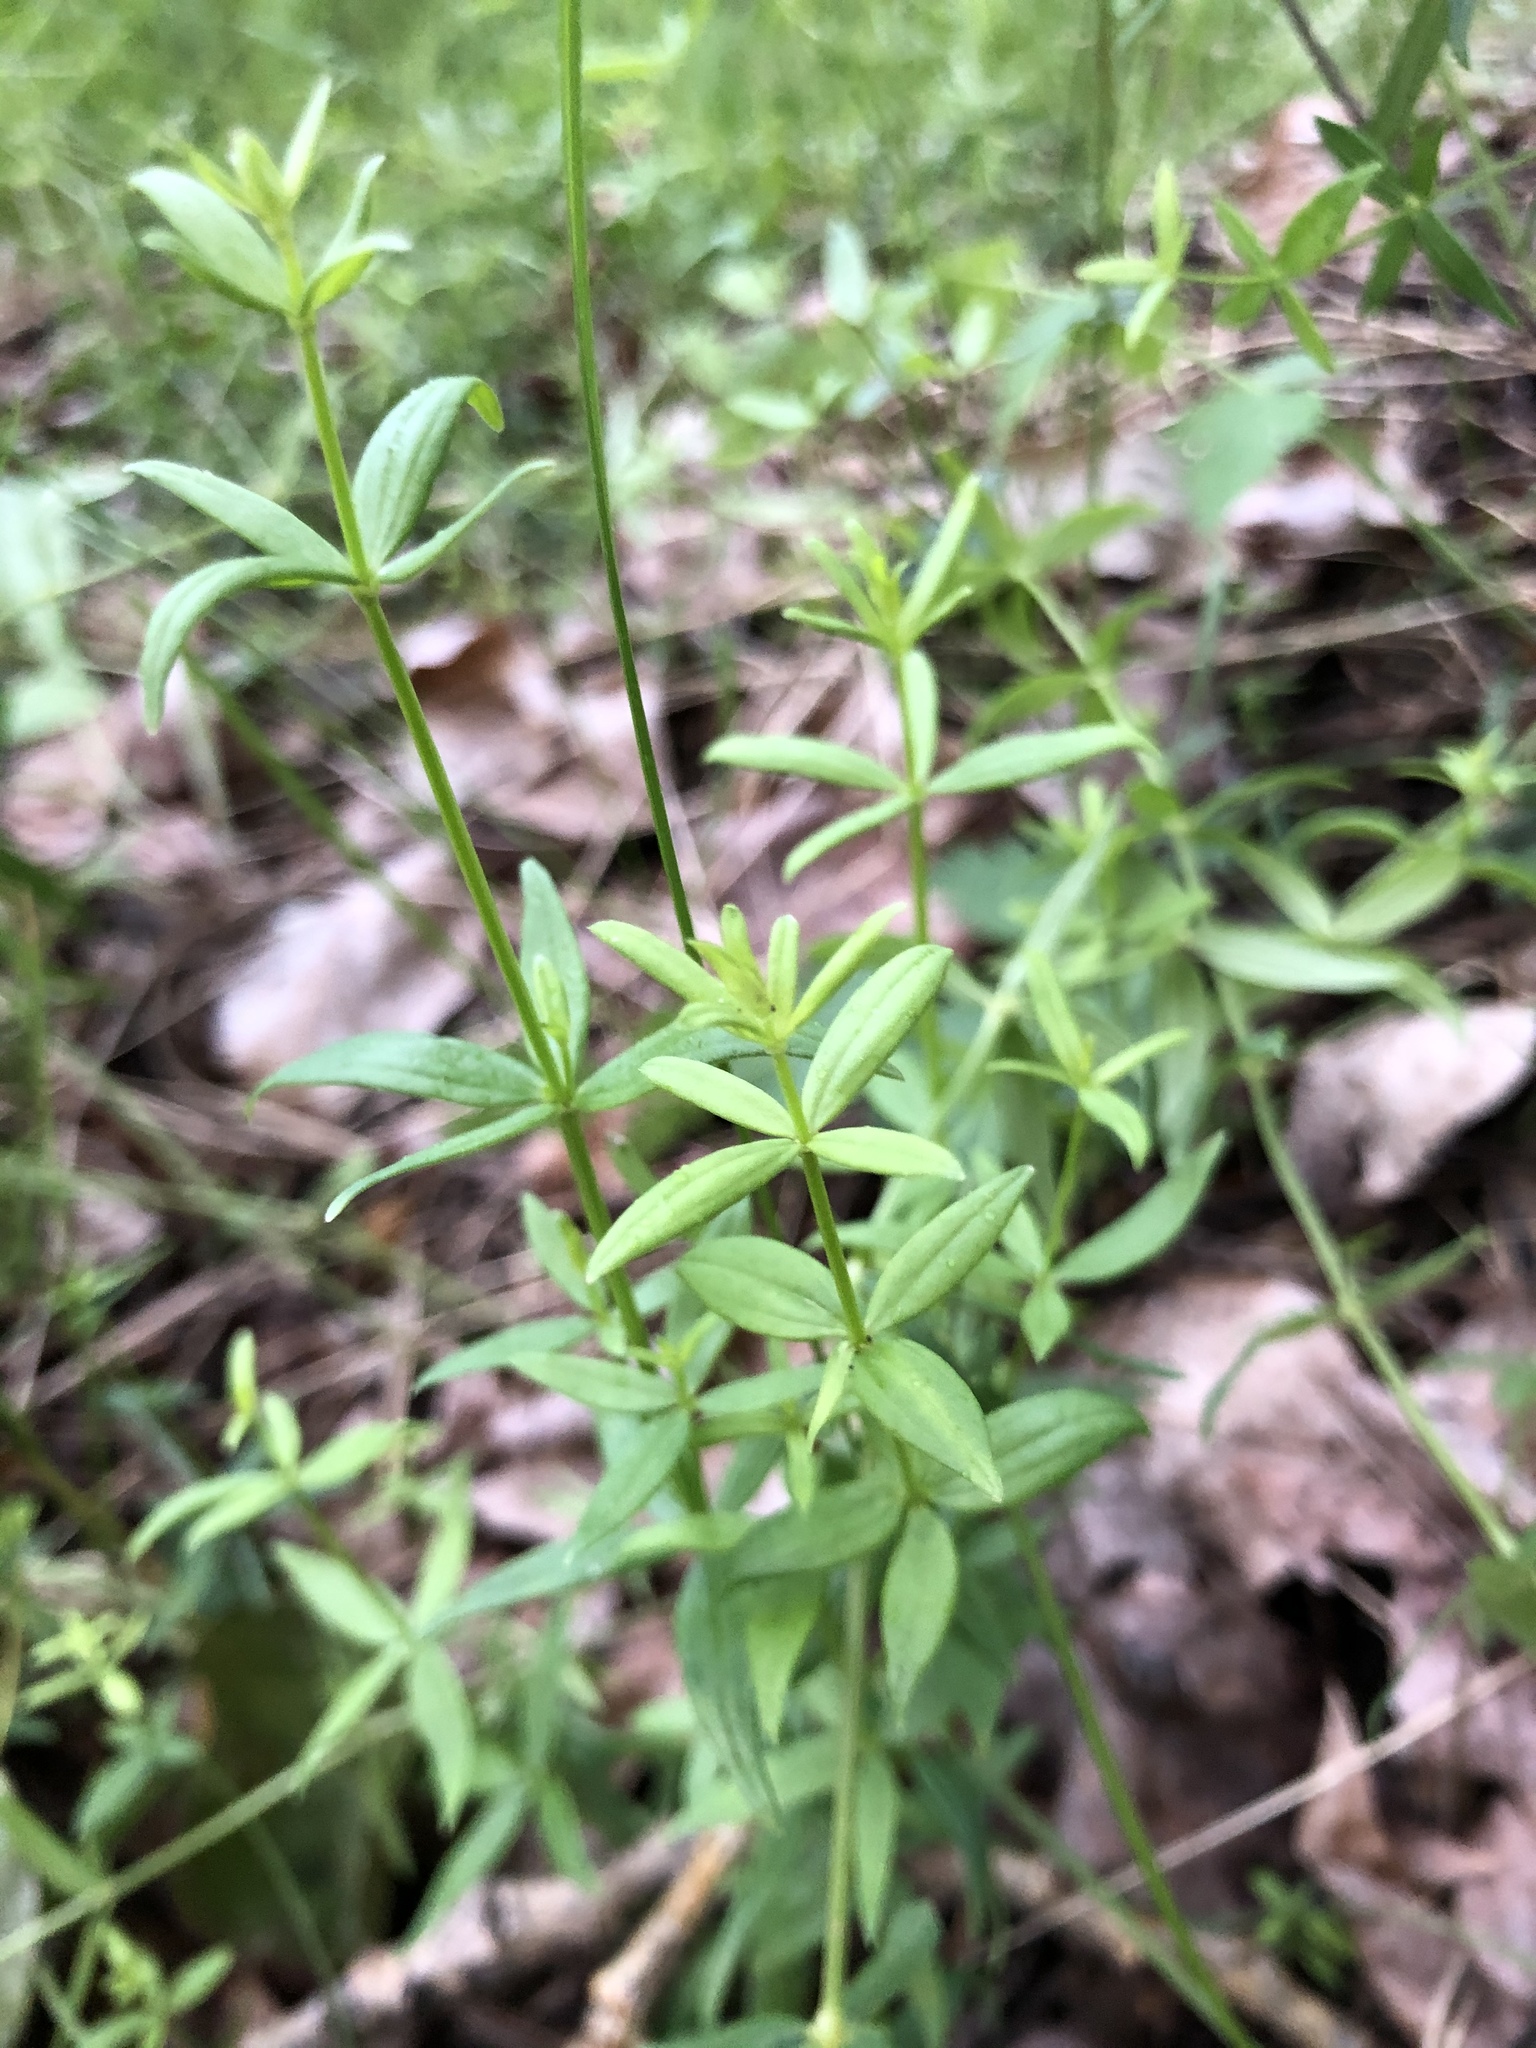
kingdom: Plantae
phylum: Tracheophyta
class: Magnoliopsida
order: Gentianales
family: Rubiaceae
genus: Galium
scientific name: Galium boreale
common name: Northern bedstraw
